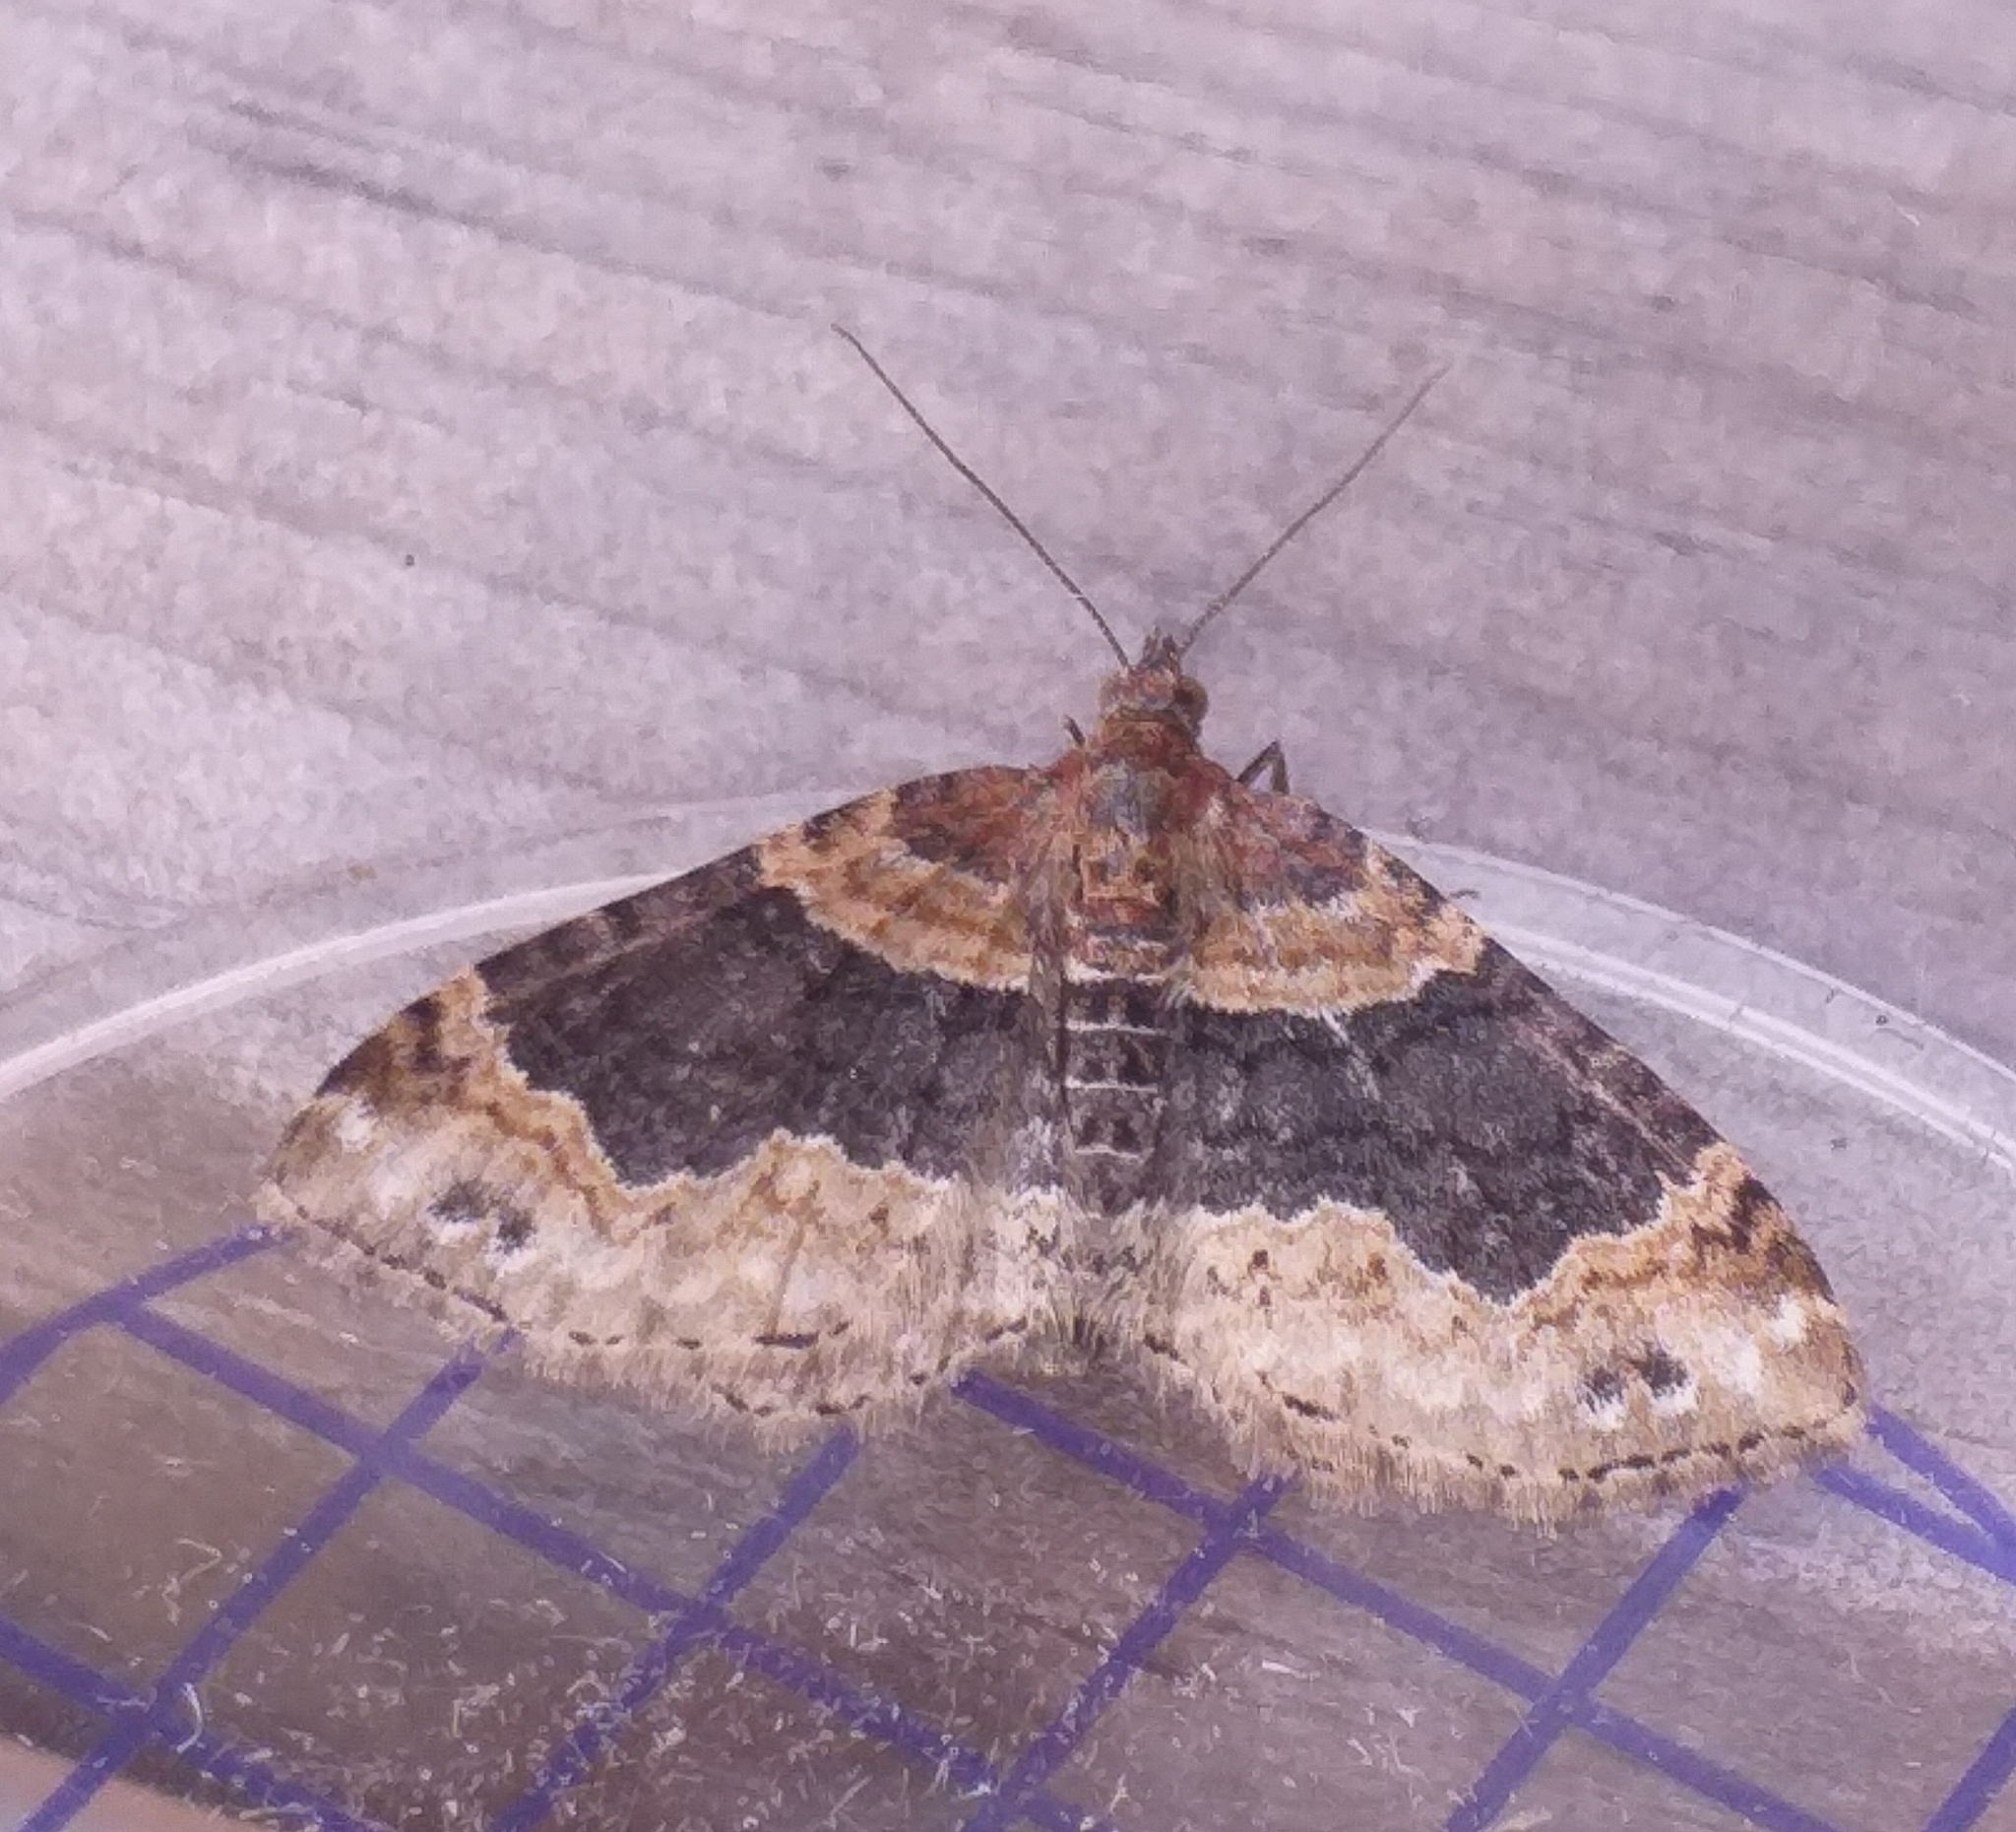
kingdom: Animalia
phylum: Arthropoda
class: Insecta
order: Lepidoptera
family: Geometridae
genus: Xanthorhoe
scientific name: Xanthorhoe ferrugata
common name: Dark-barred twin-spot carpet
